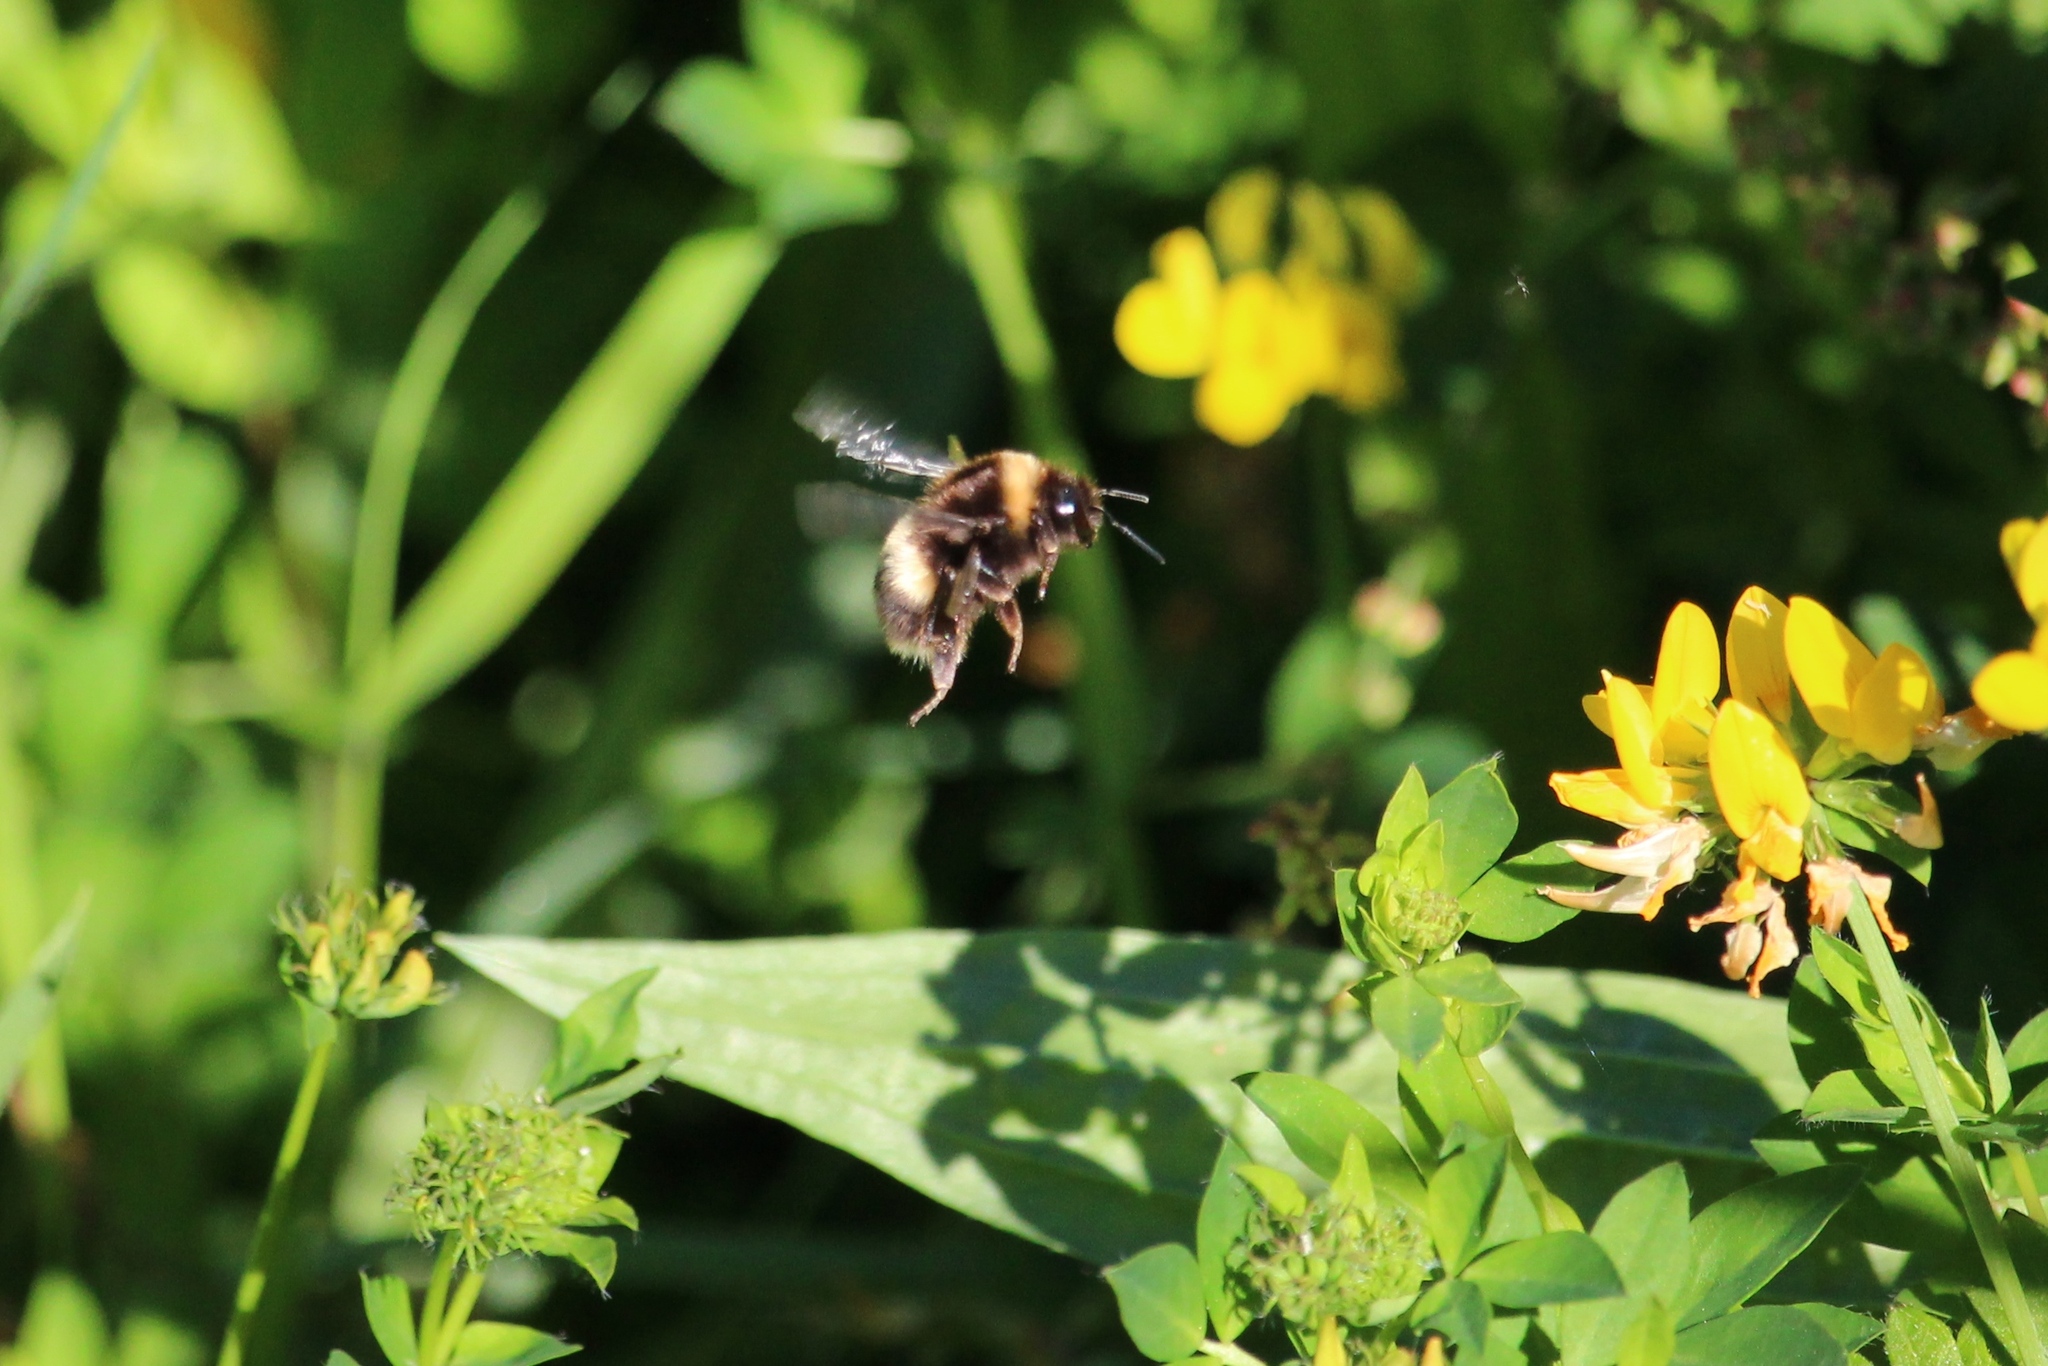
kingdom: Animalia
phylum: Arthropoda
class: Insecta
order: Hymenoptera
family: Apidae
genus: Bombus
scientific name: Bombus terrestris
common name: Buff-tailed bumblebee
